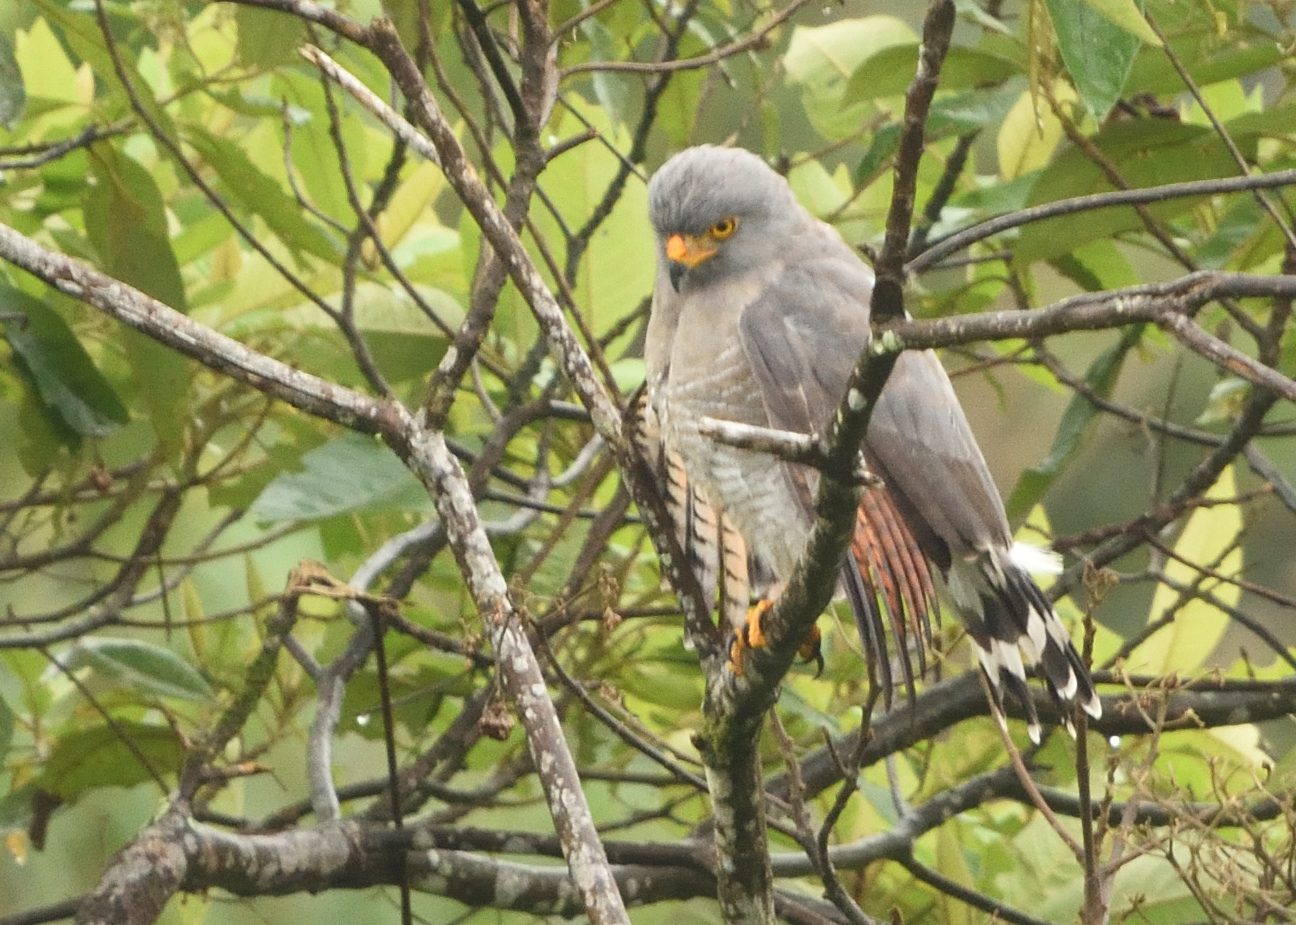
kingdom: Animalia
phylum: Chordata
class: Aves
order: Accipitriformes
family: Accipitridae
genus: Rupornis
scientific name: Rupornis magnirostris
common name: Roadside hawk
